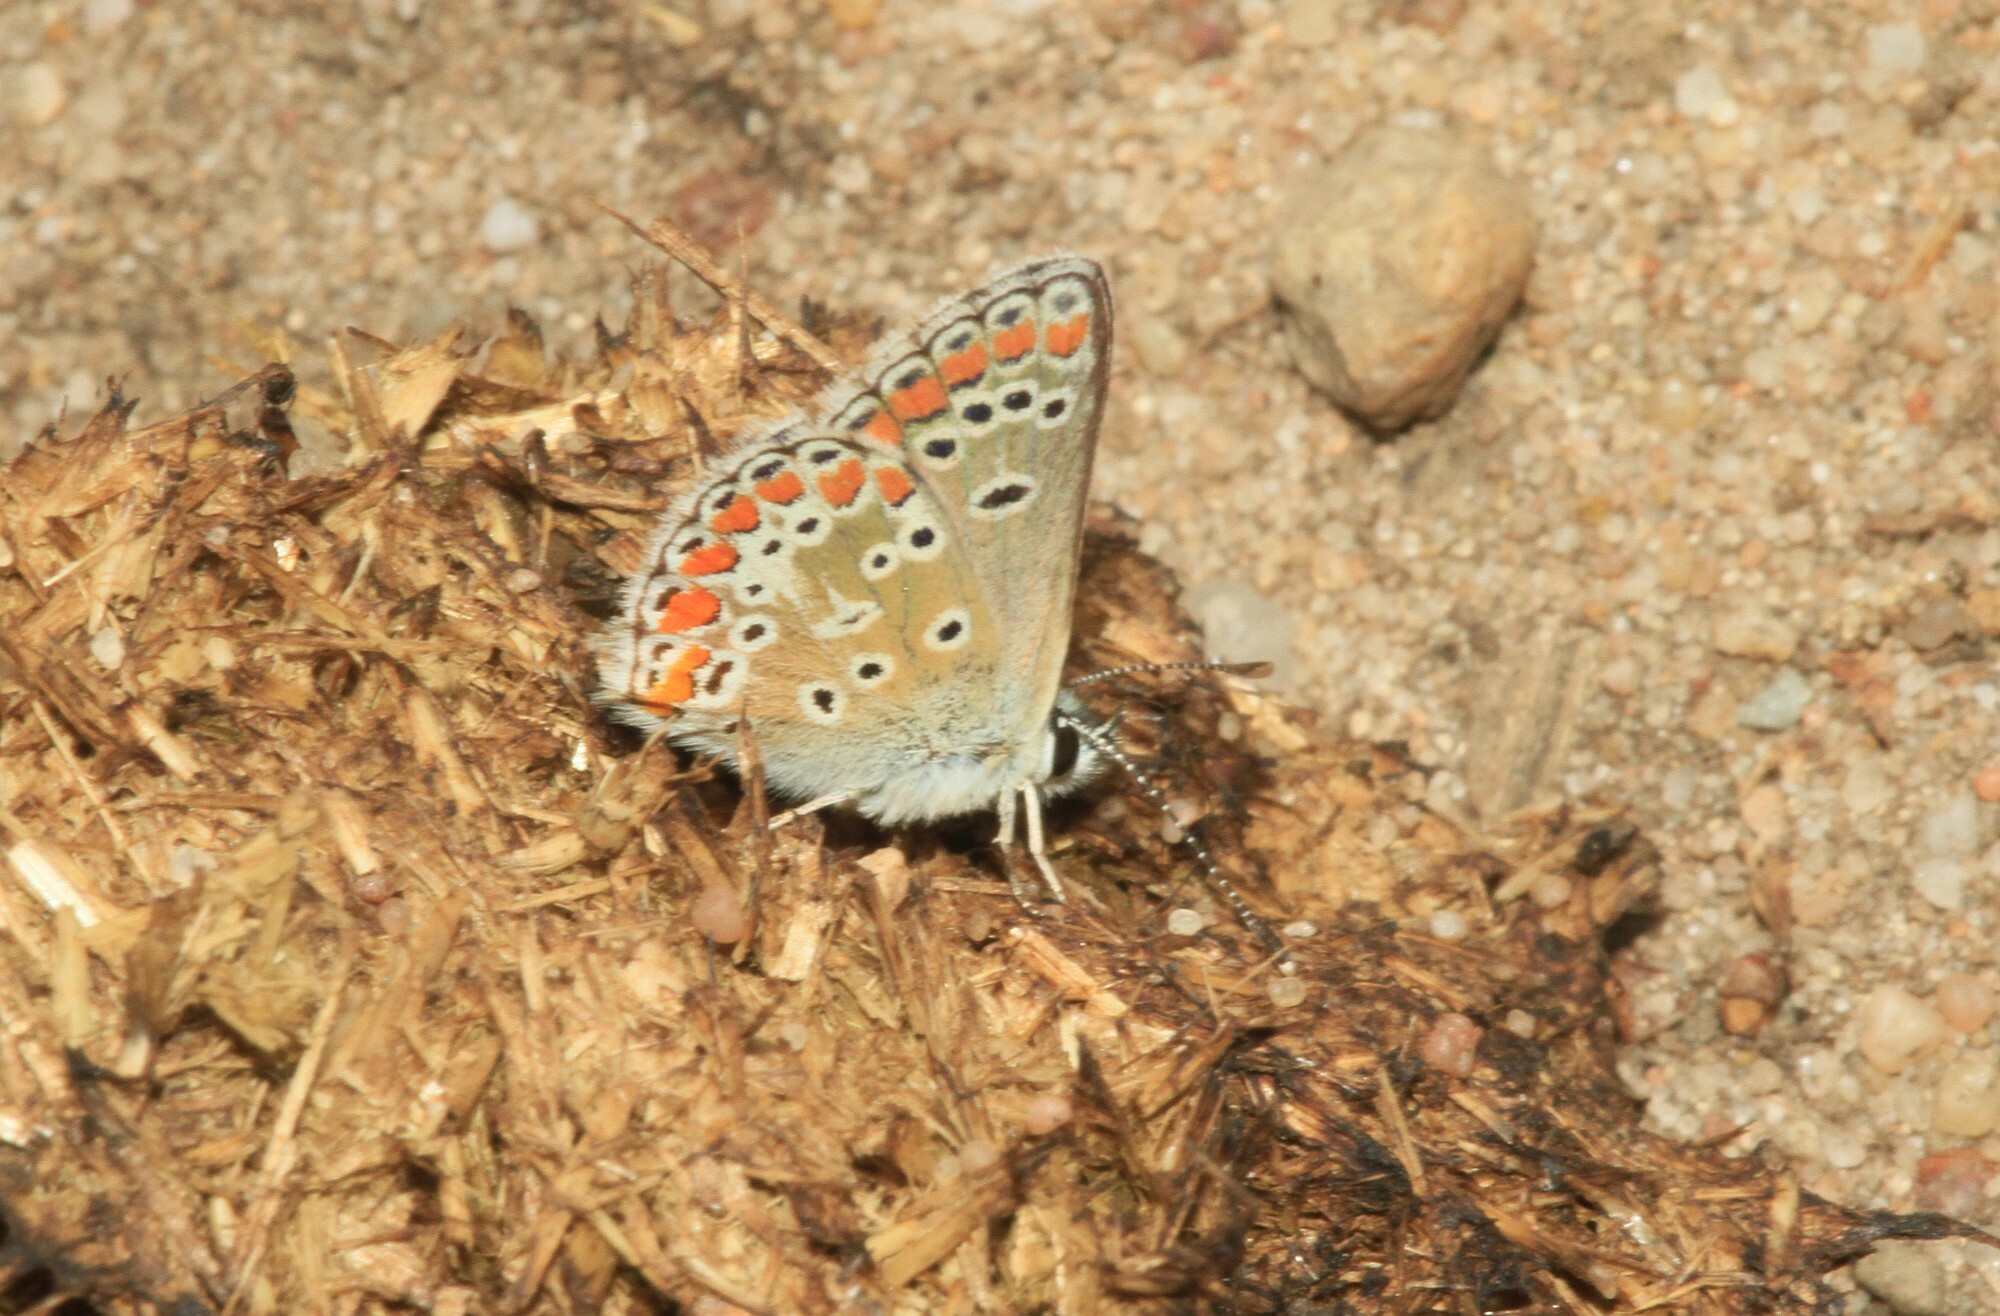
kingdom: Animalia
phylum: Arthropoda
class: Insecta
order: Lepidoptera
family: Lycaenidae
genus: Aricia
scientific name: Aricia agestis
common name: Brown argus
